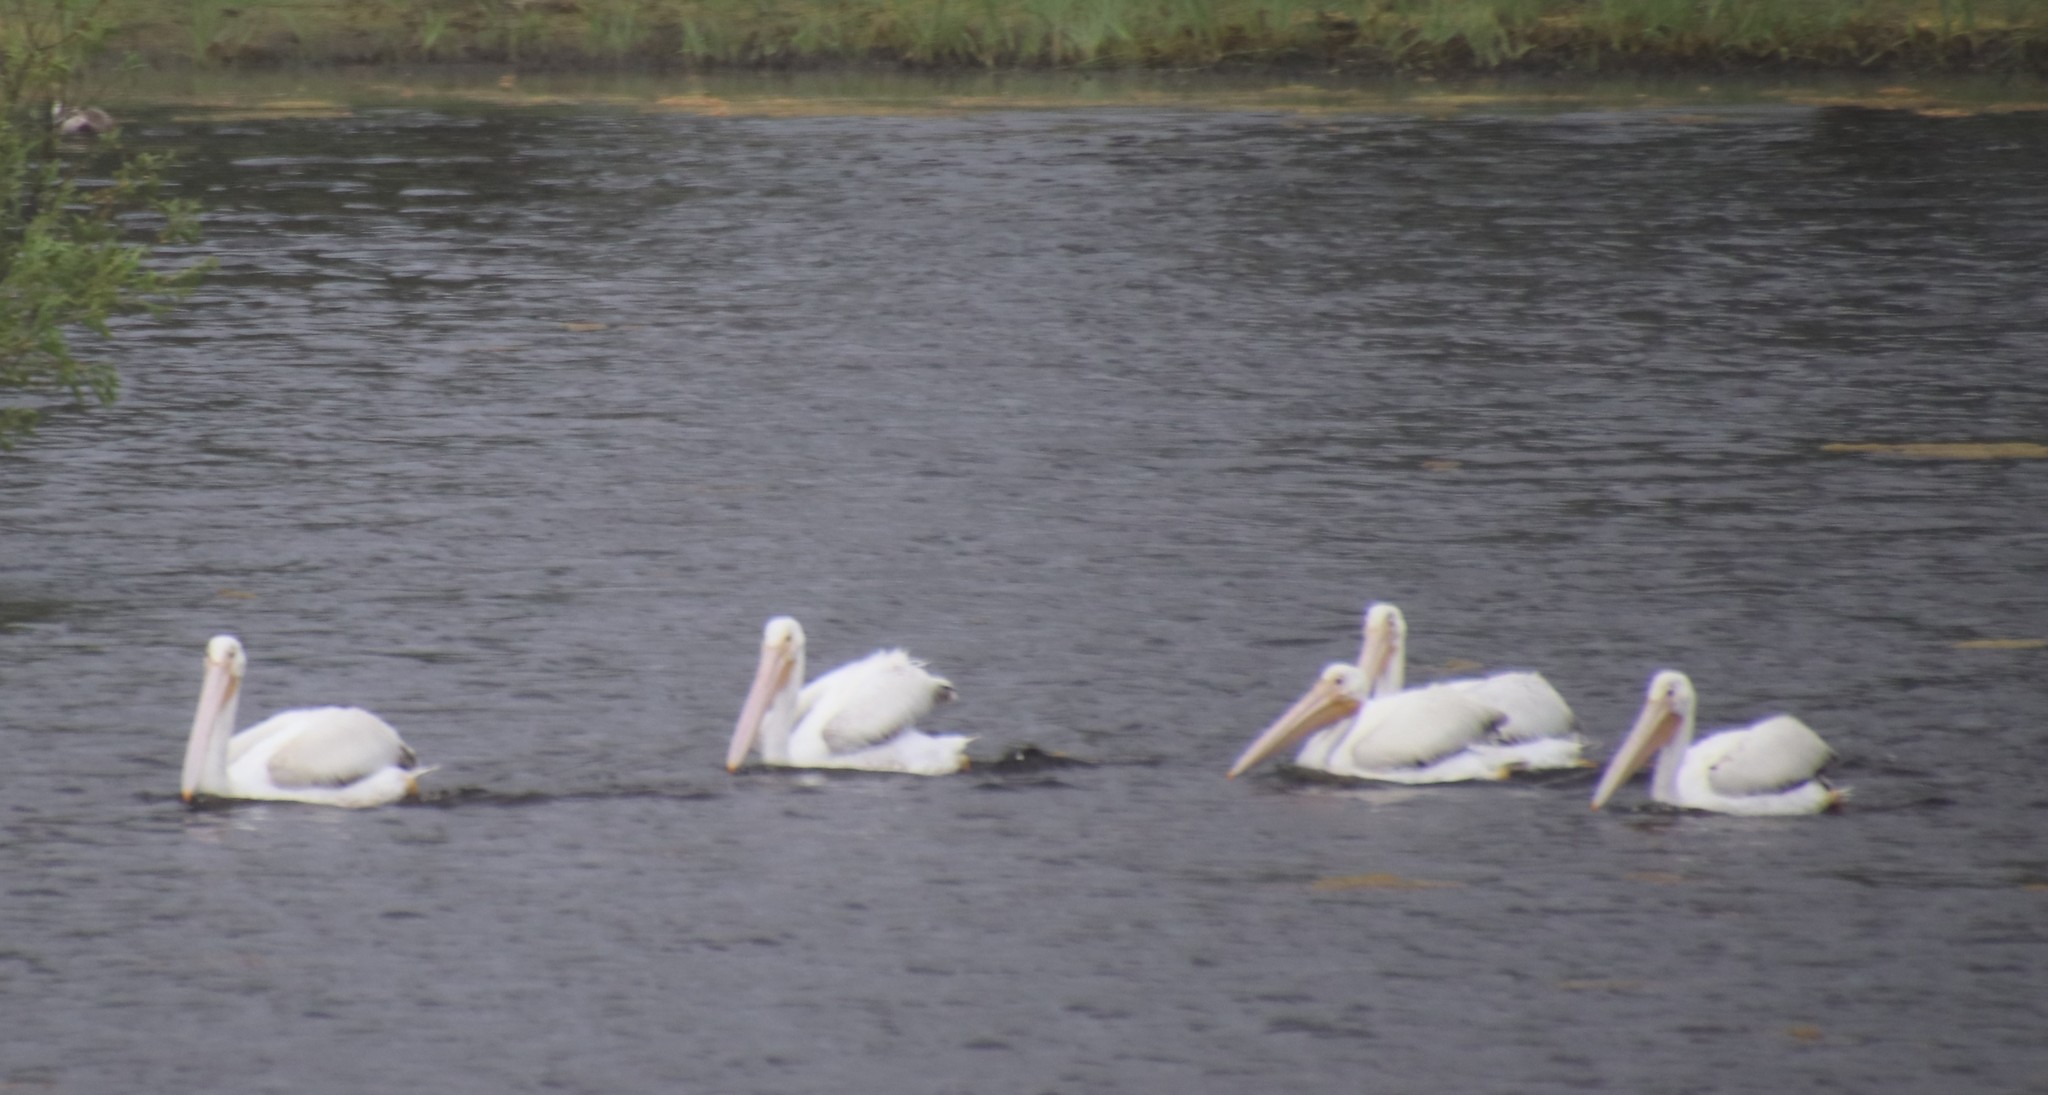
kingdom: Animalia
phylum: Chordata
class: Aves
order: Pelecaniformes
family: Pelecanidae
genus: Pelecanus
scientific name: Pelecanus erythrorhynchos
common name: American white pelican
